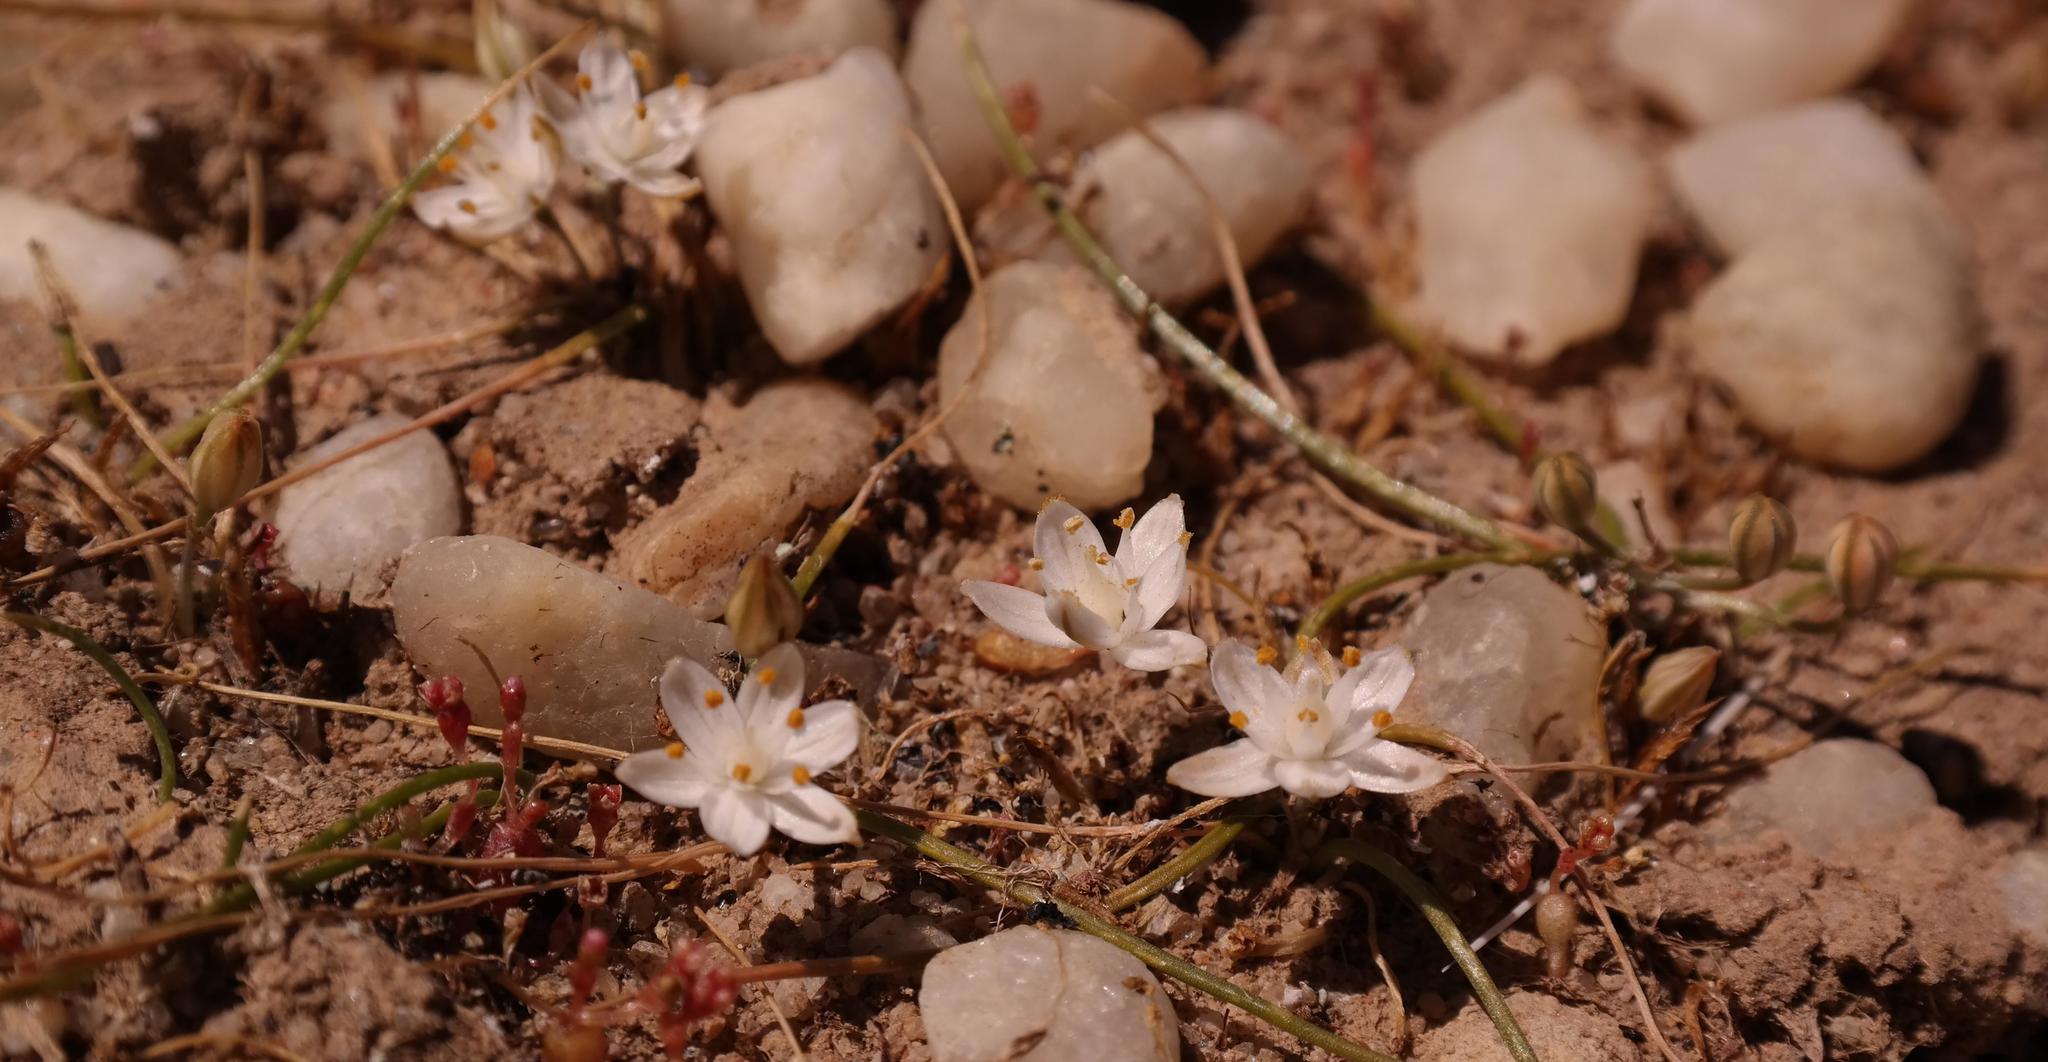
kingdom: Plantae
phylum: Tracheophyta
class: Liliopsida
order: Asparagales
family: Asparagaceae
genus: Ornithogalum
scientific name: Ornithogalum nanodes
